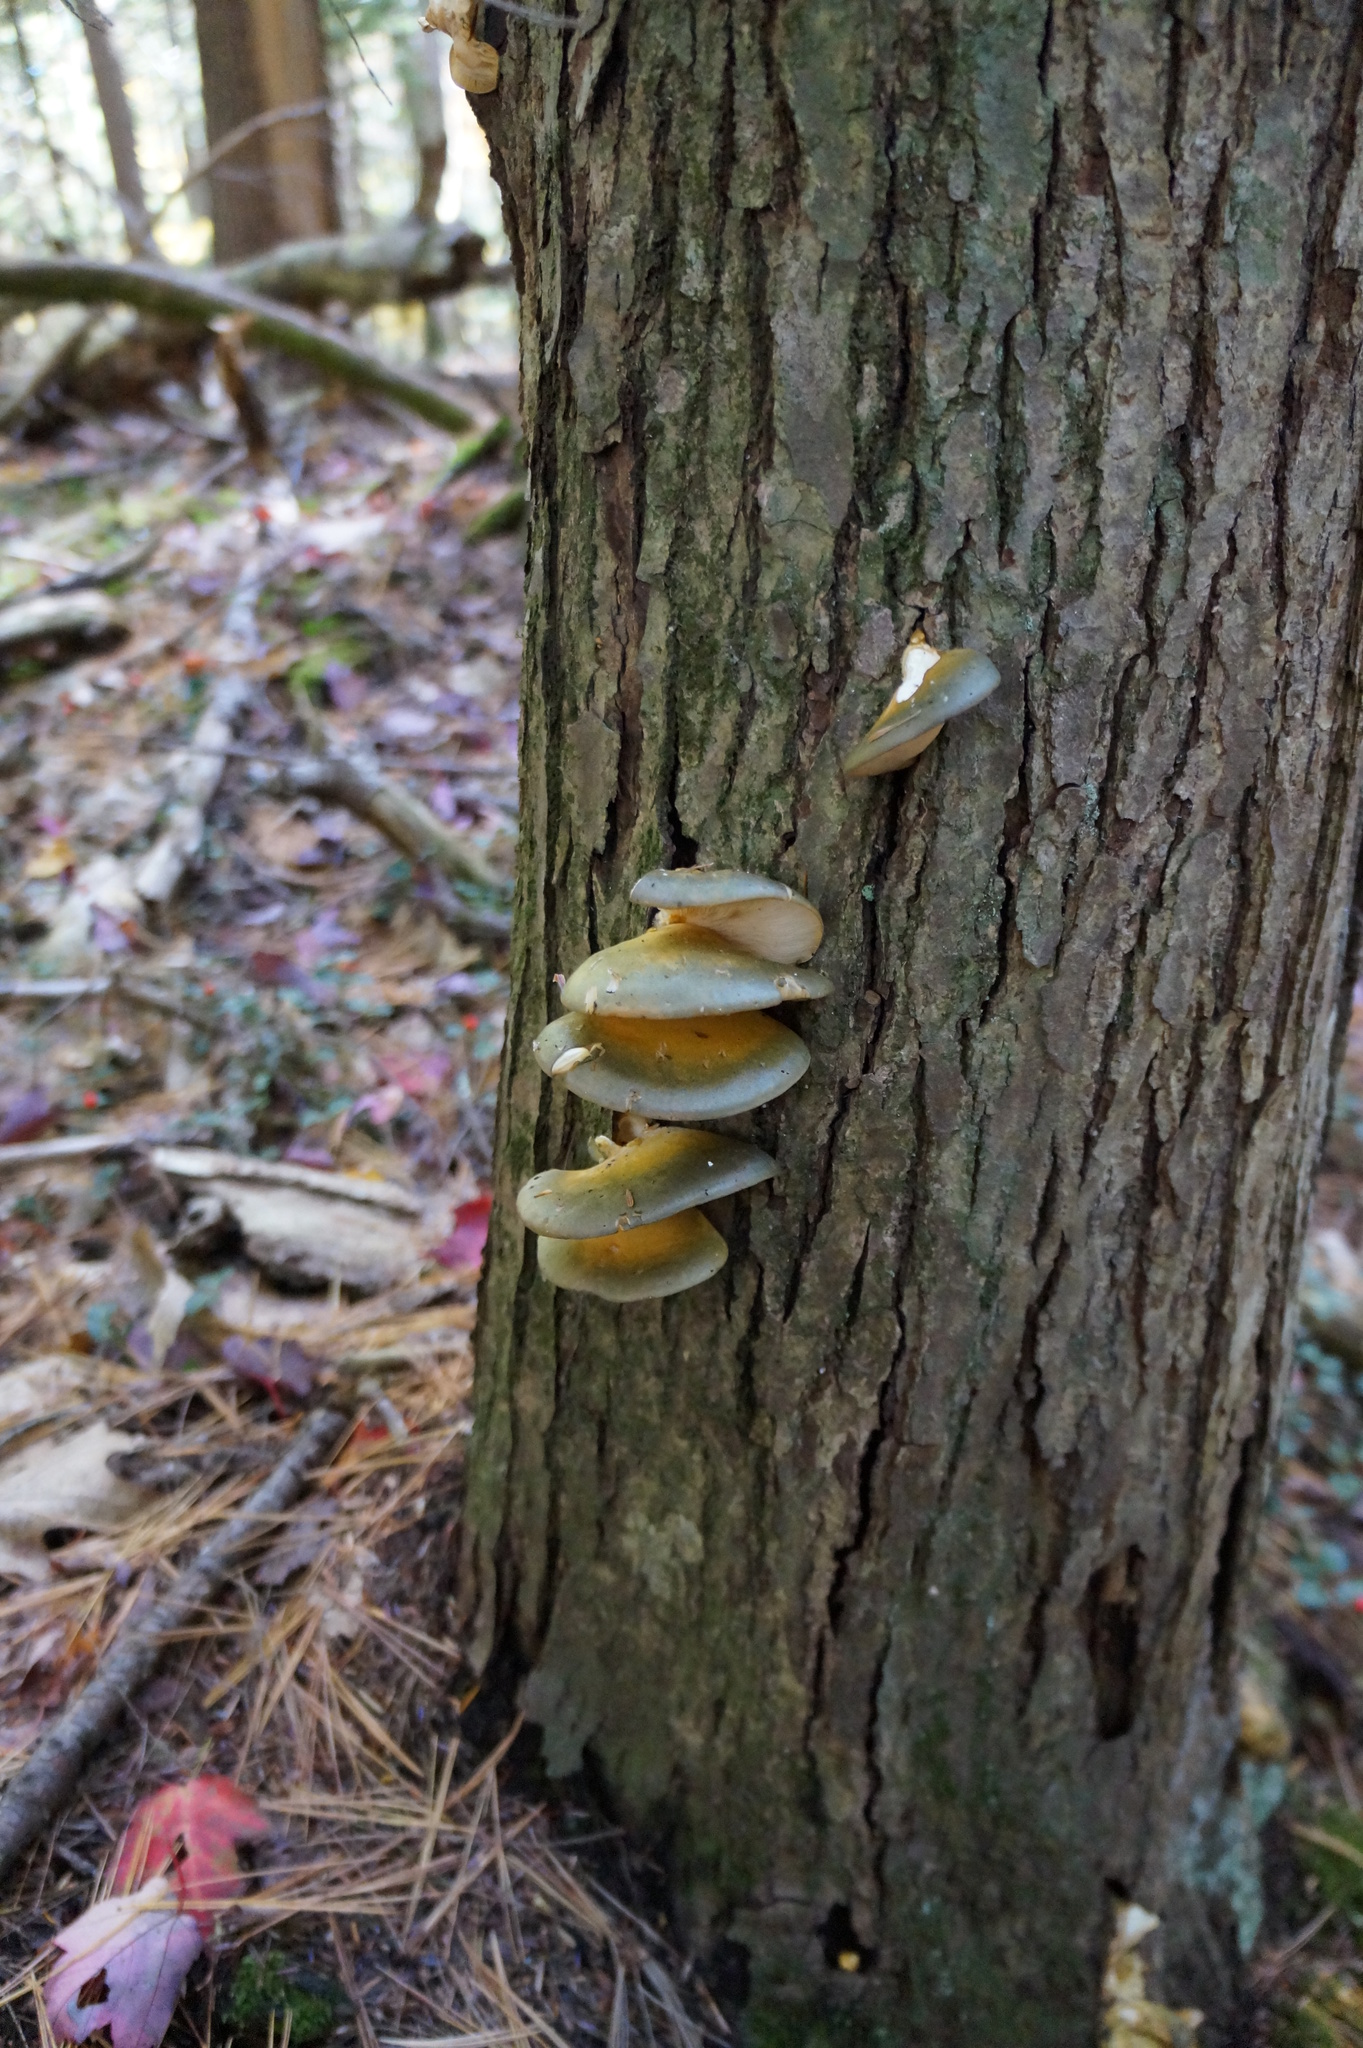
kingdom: Fungi
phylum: Basidiomycota
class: Agaricomycetes
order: Agaricales
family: Sarcomyxaceae
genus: Sarcomyxa
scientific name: Sarcomyxa serotina
